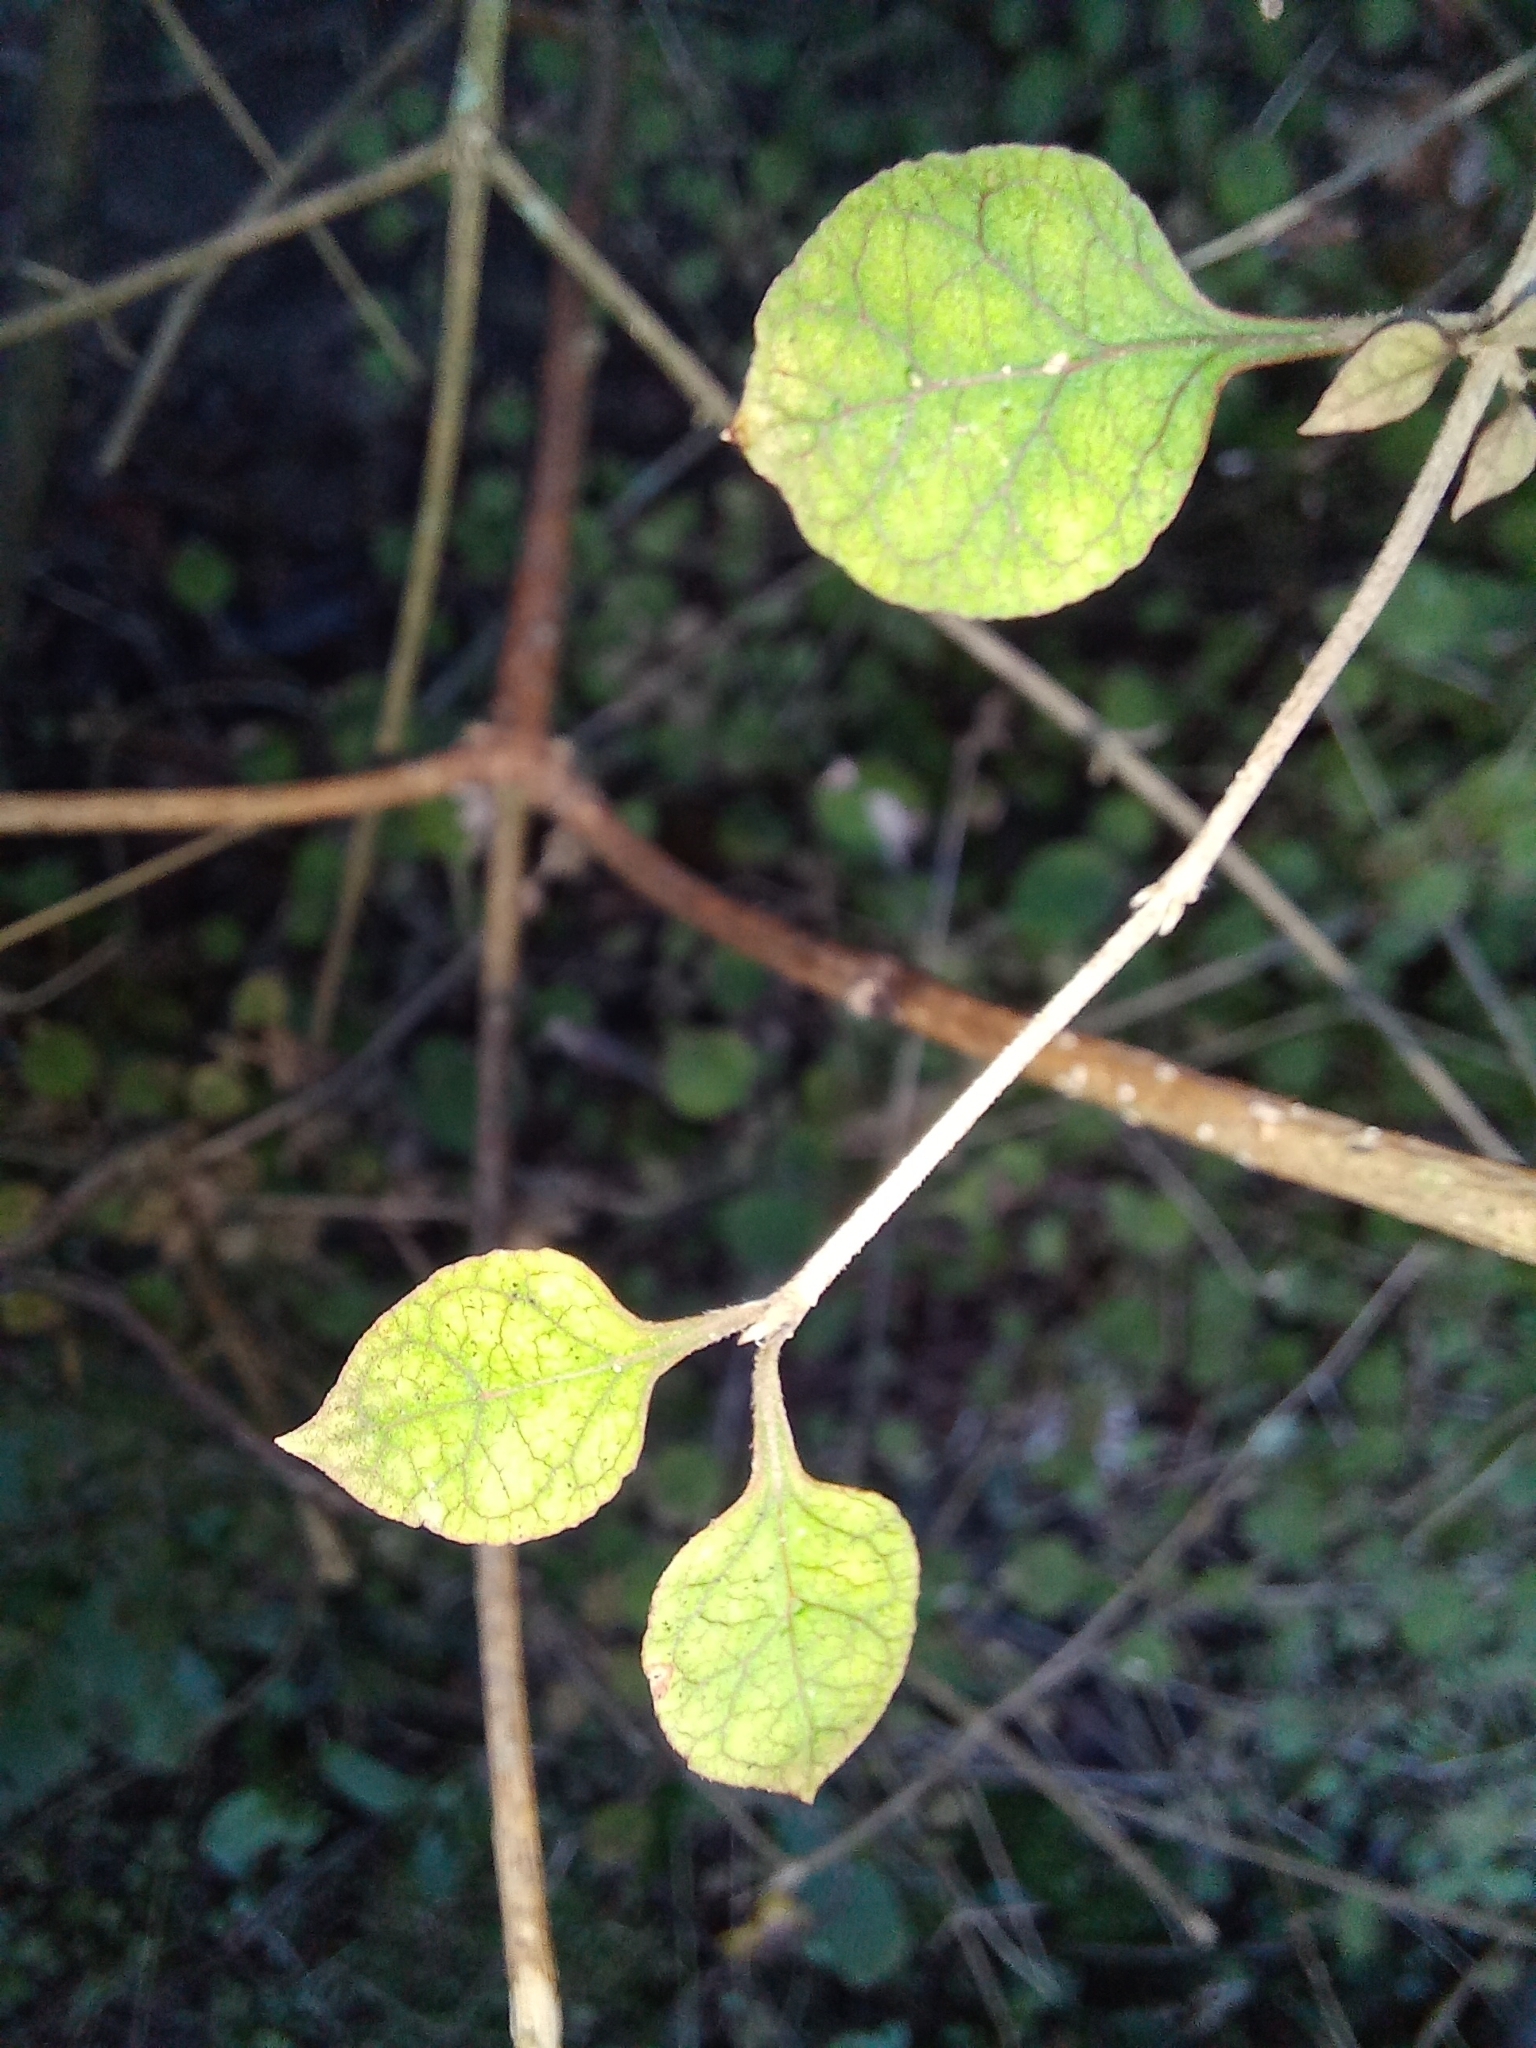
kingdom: Plantae
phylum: Tracheophyta
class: Magnoliopsida
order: Gentianales
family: Rubiaceae
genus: Coprosma
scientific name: Coprosma areolata
